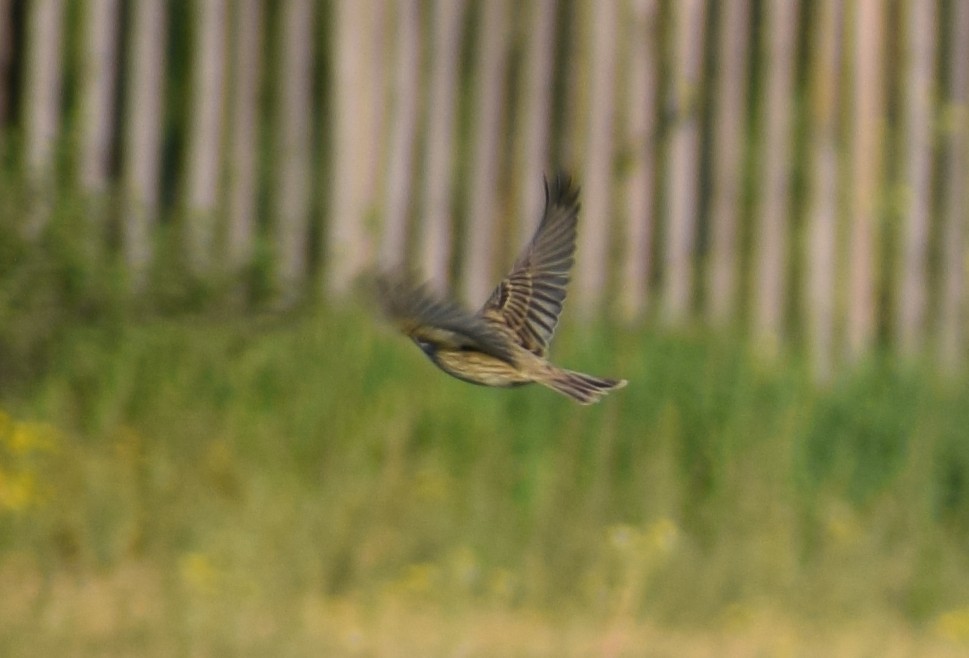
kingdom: Animalia
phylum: Chordata
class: Aves
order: Passeriformes
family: Emberizidae
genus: Emberiza
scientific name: Emberiza calandra
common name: Corn bunting
